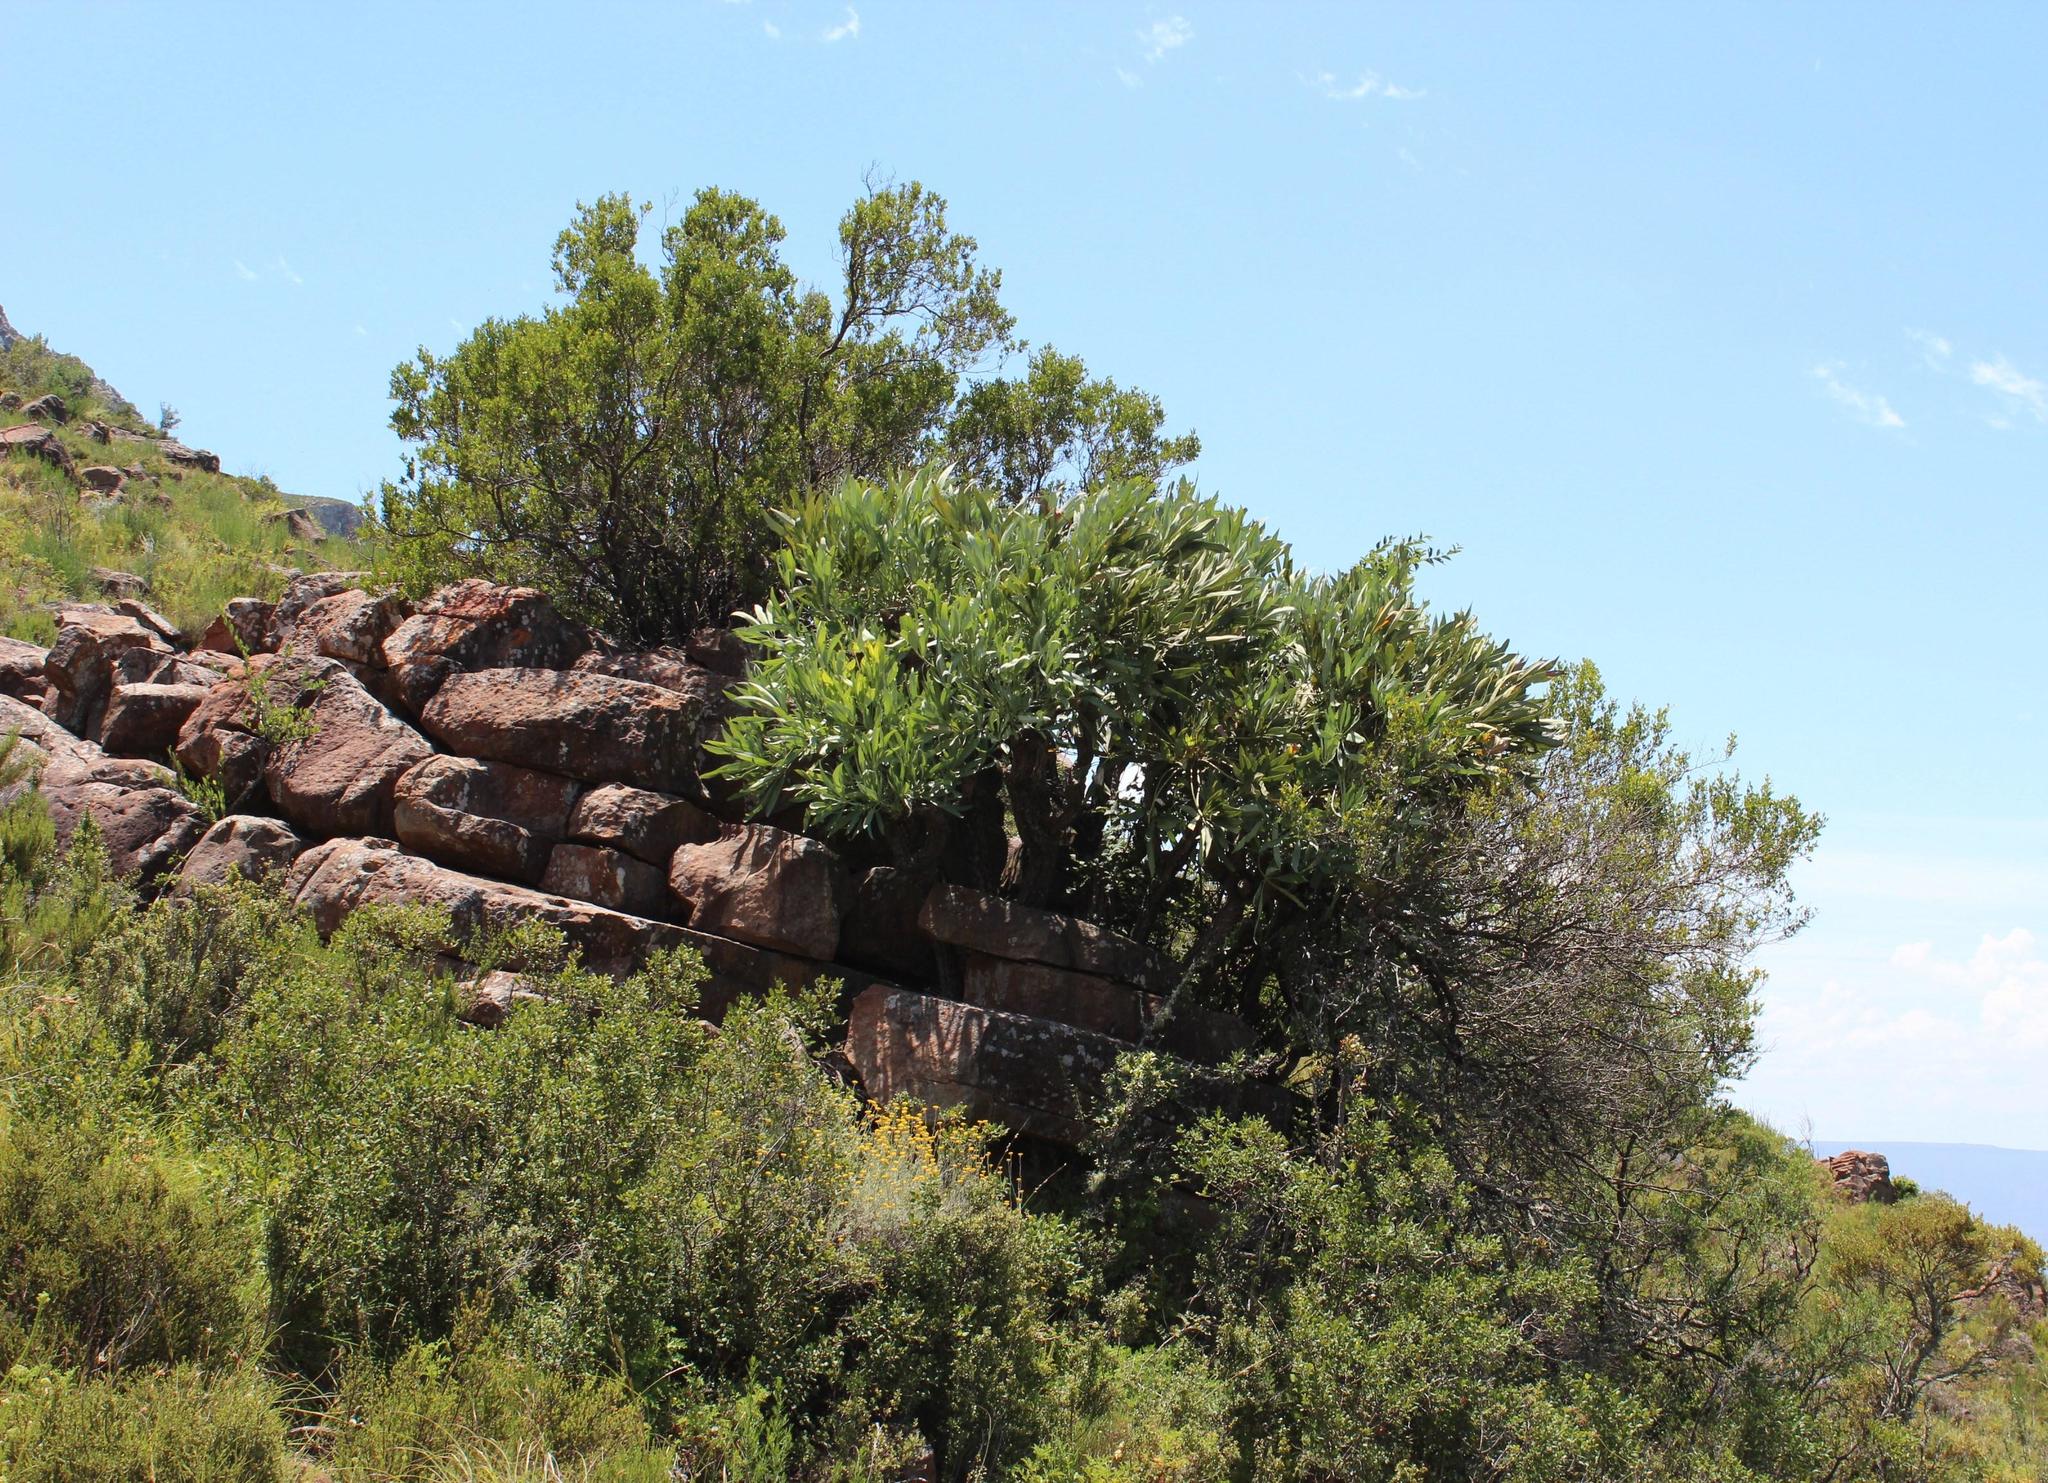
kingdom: Plantae
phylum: Tracheophyta
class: Magnoliopsida
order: Apiales
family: Araliaceae
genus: Cussonia
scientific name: Cussonia paniculata
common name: Cabbagetree
